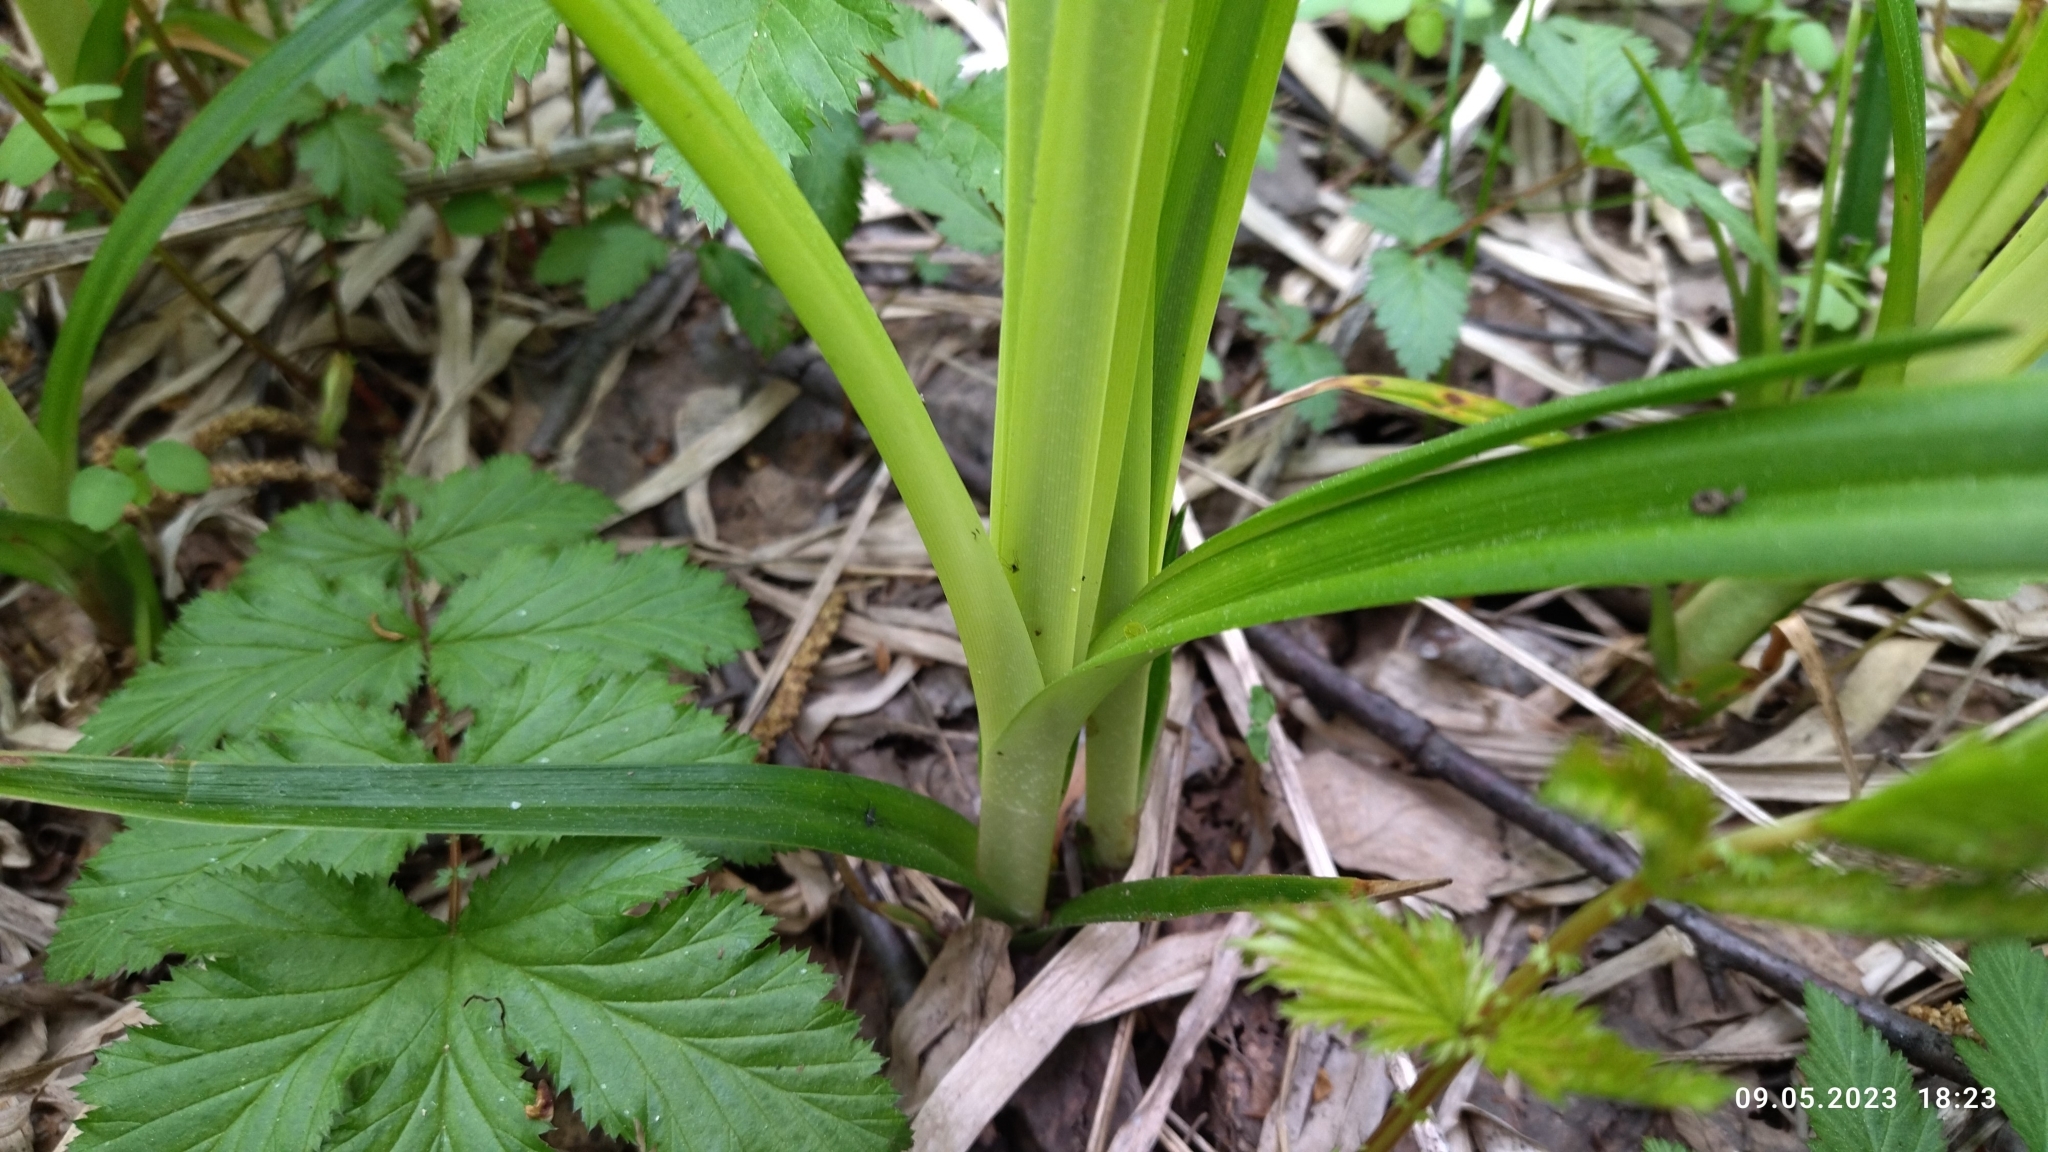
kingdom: Plantae
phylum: Tracheophyta
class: Liliopsida
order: Poales
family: Cyperaceae
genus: Scirpus
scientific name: Scirpus sylvaticus
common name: Wood club-rush
